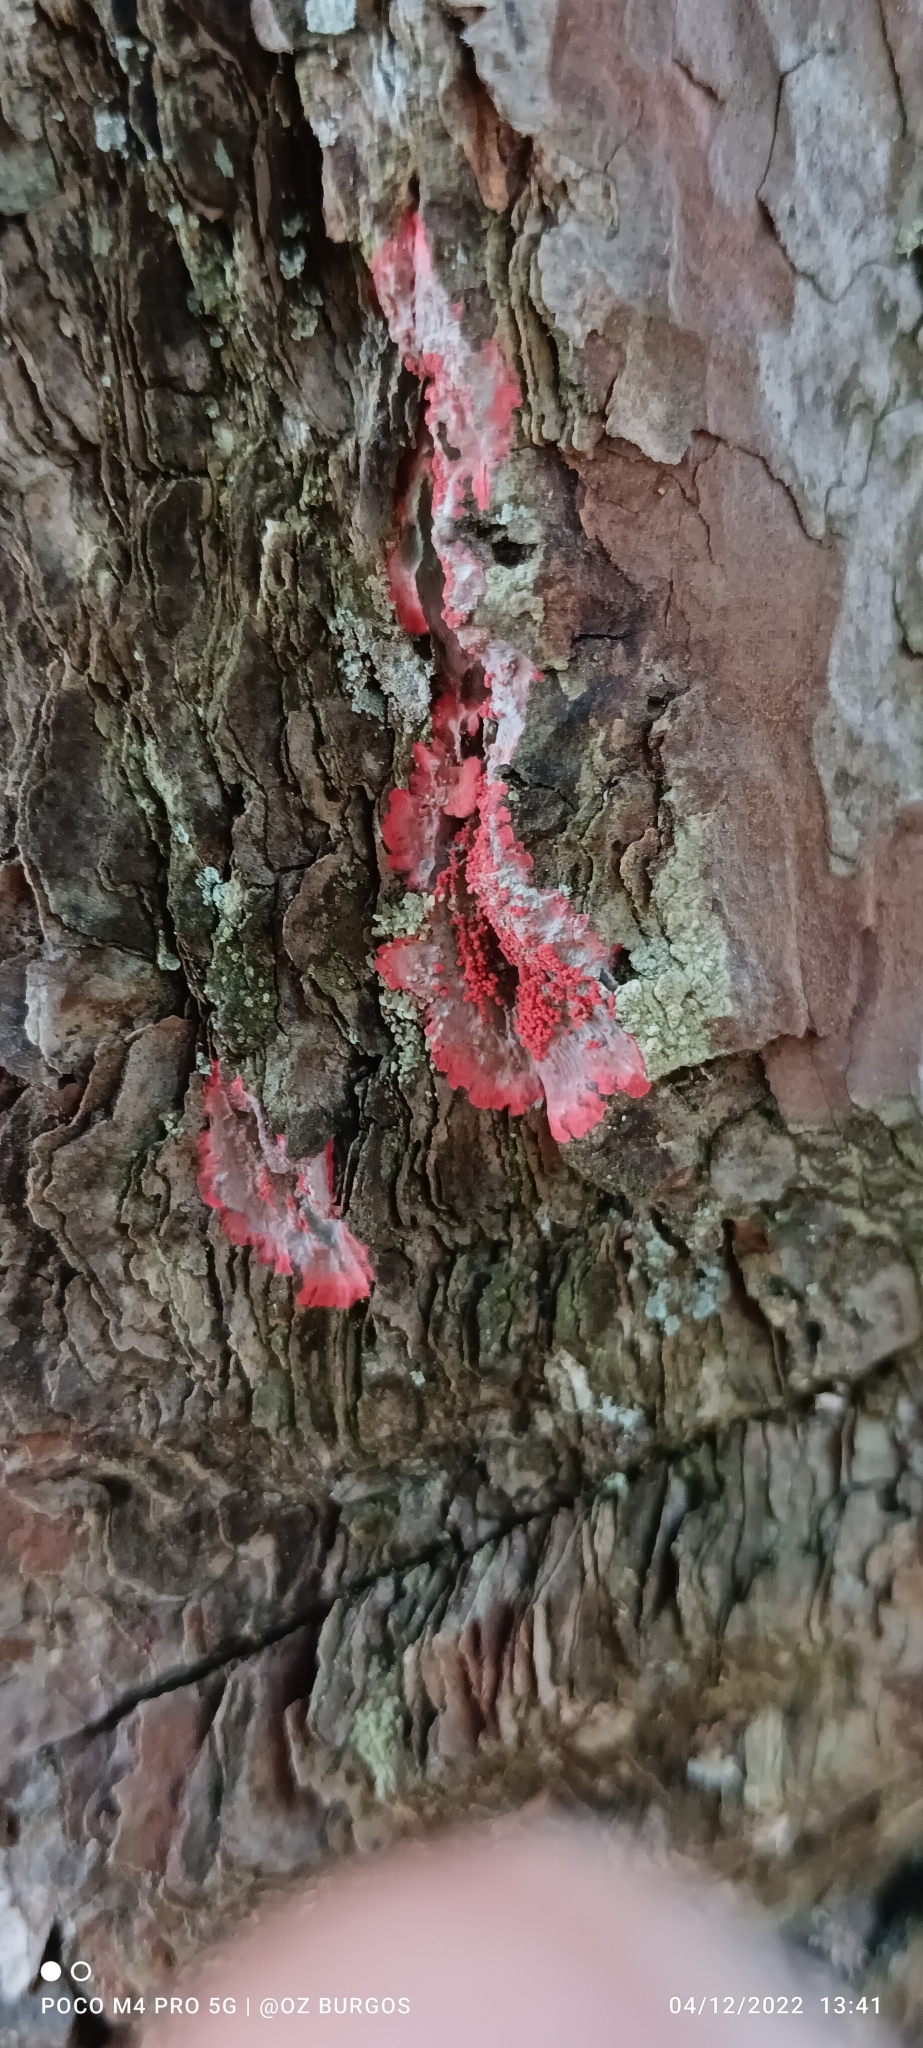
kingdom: Fungi
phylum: Ascomycota
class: Arthoniomycetes
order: Arthoniales
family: Arthoniaceae
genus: Herpothallon
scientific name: Herpothallon rubrocinctum
